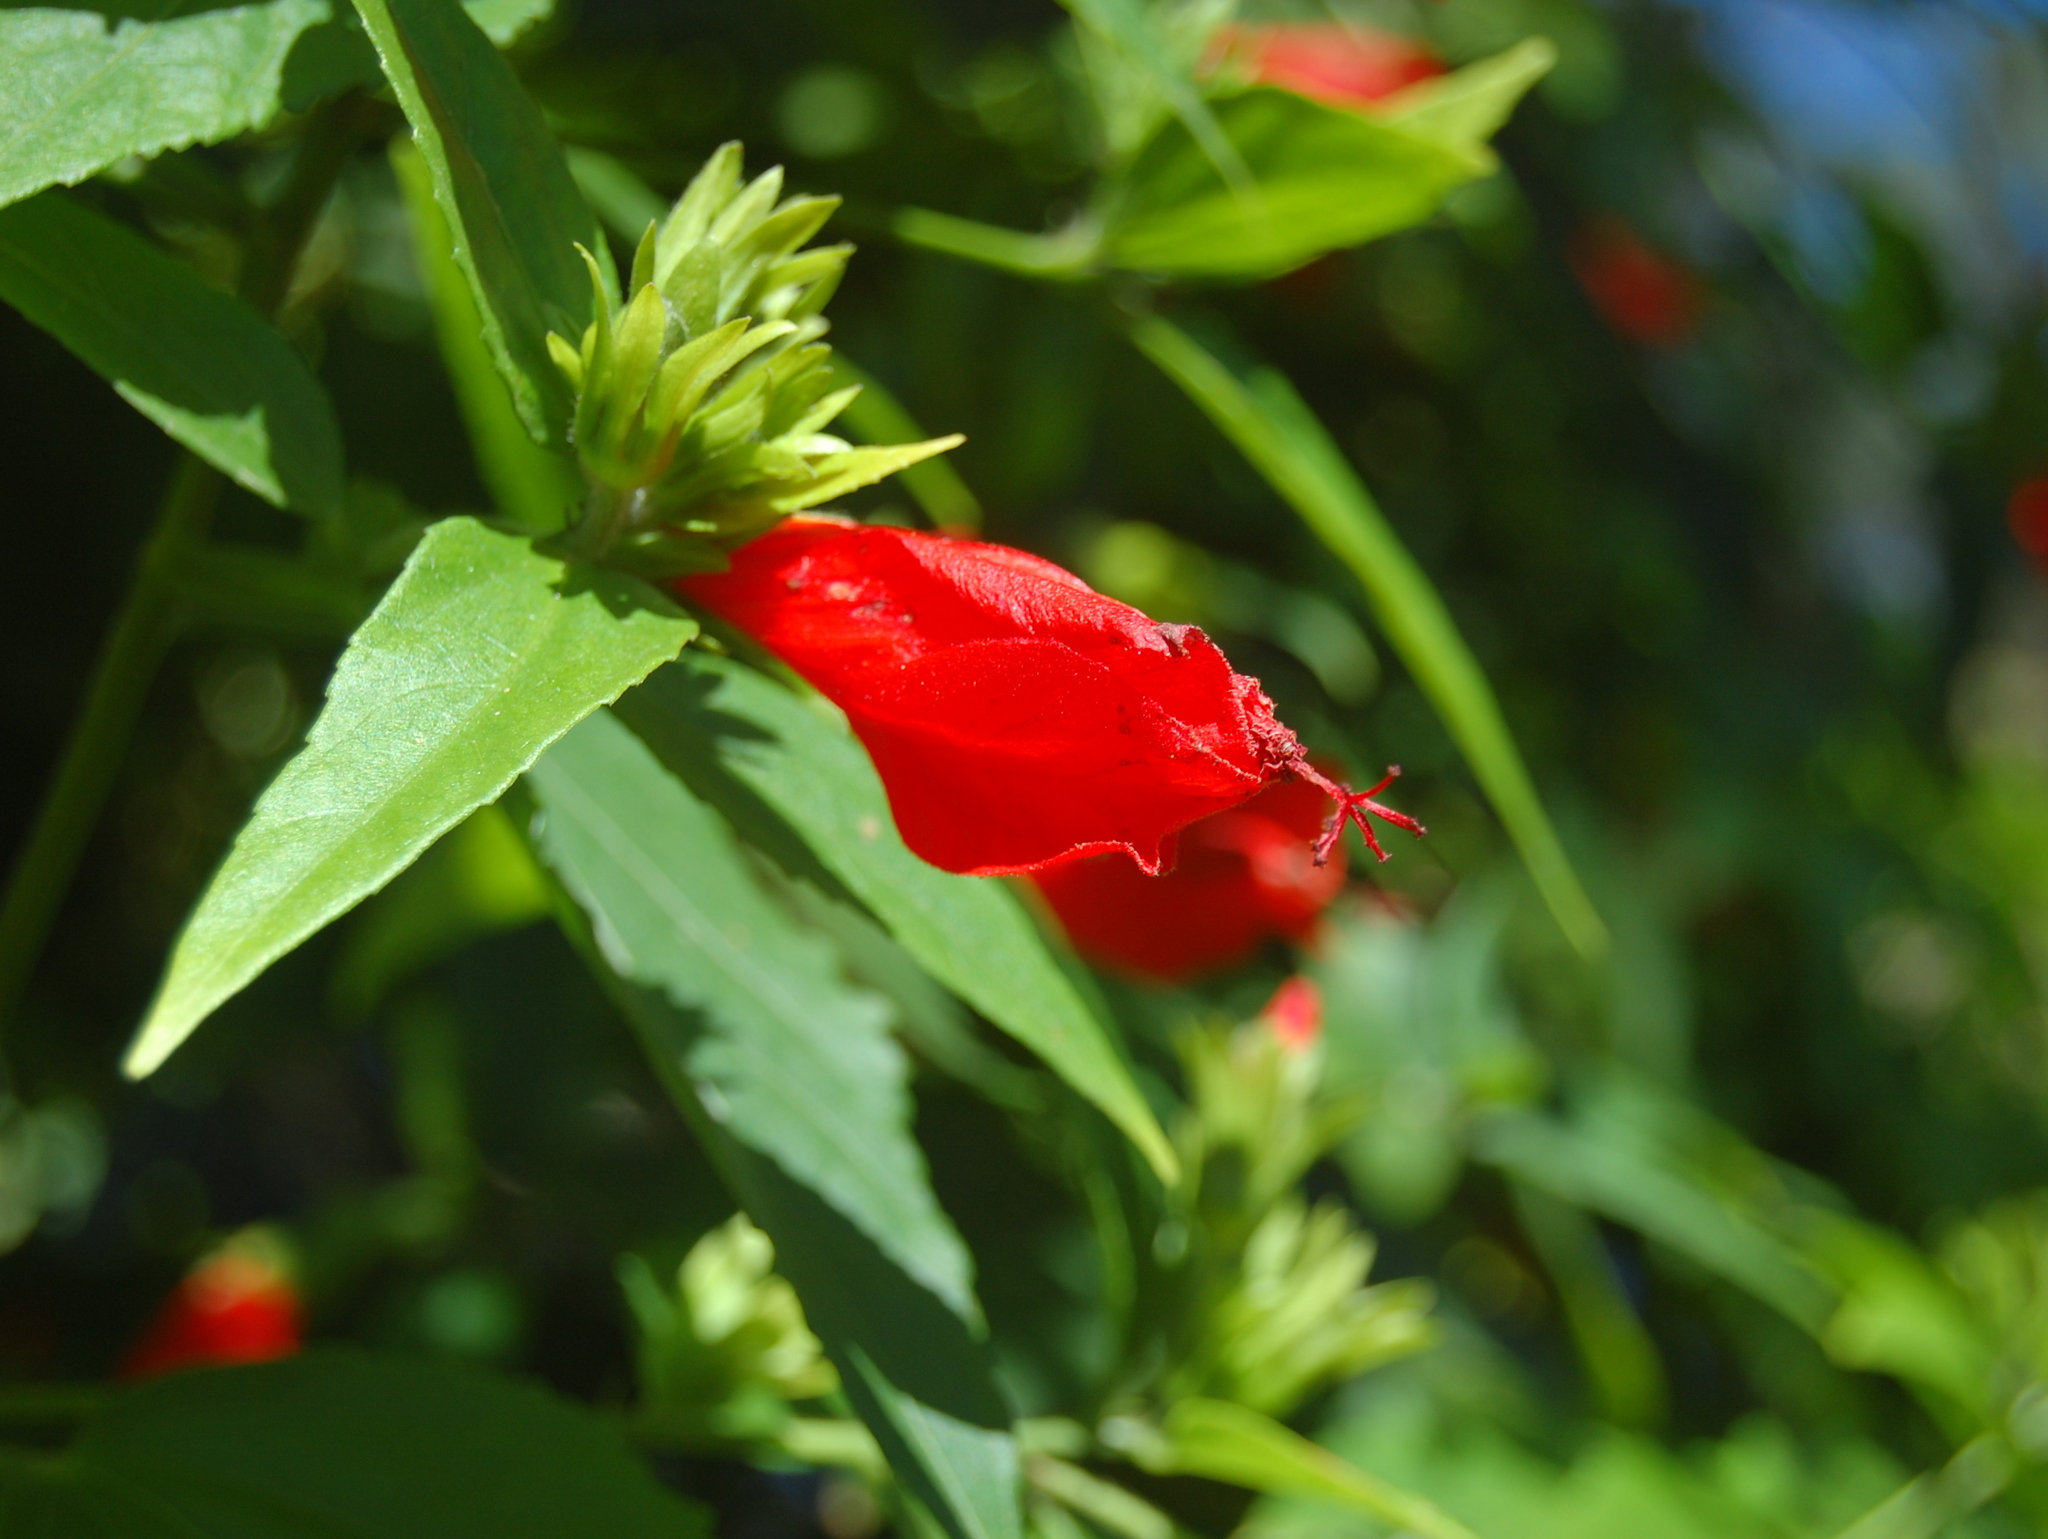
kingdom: Plantae
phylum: Tracheophyta
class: Magnoliopsida
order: Malvales
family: Malvaceae
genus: Malvaviscus
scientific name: Malvaviscus penduliflorus
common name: Mazapan
